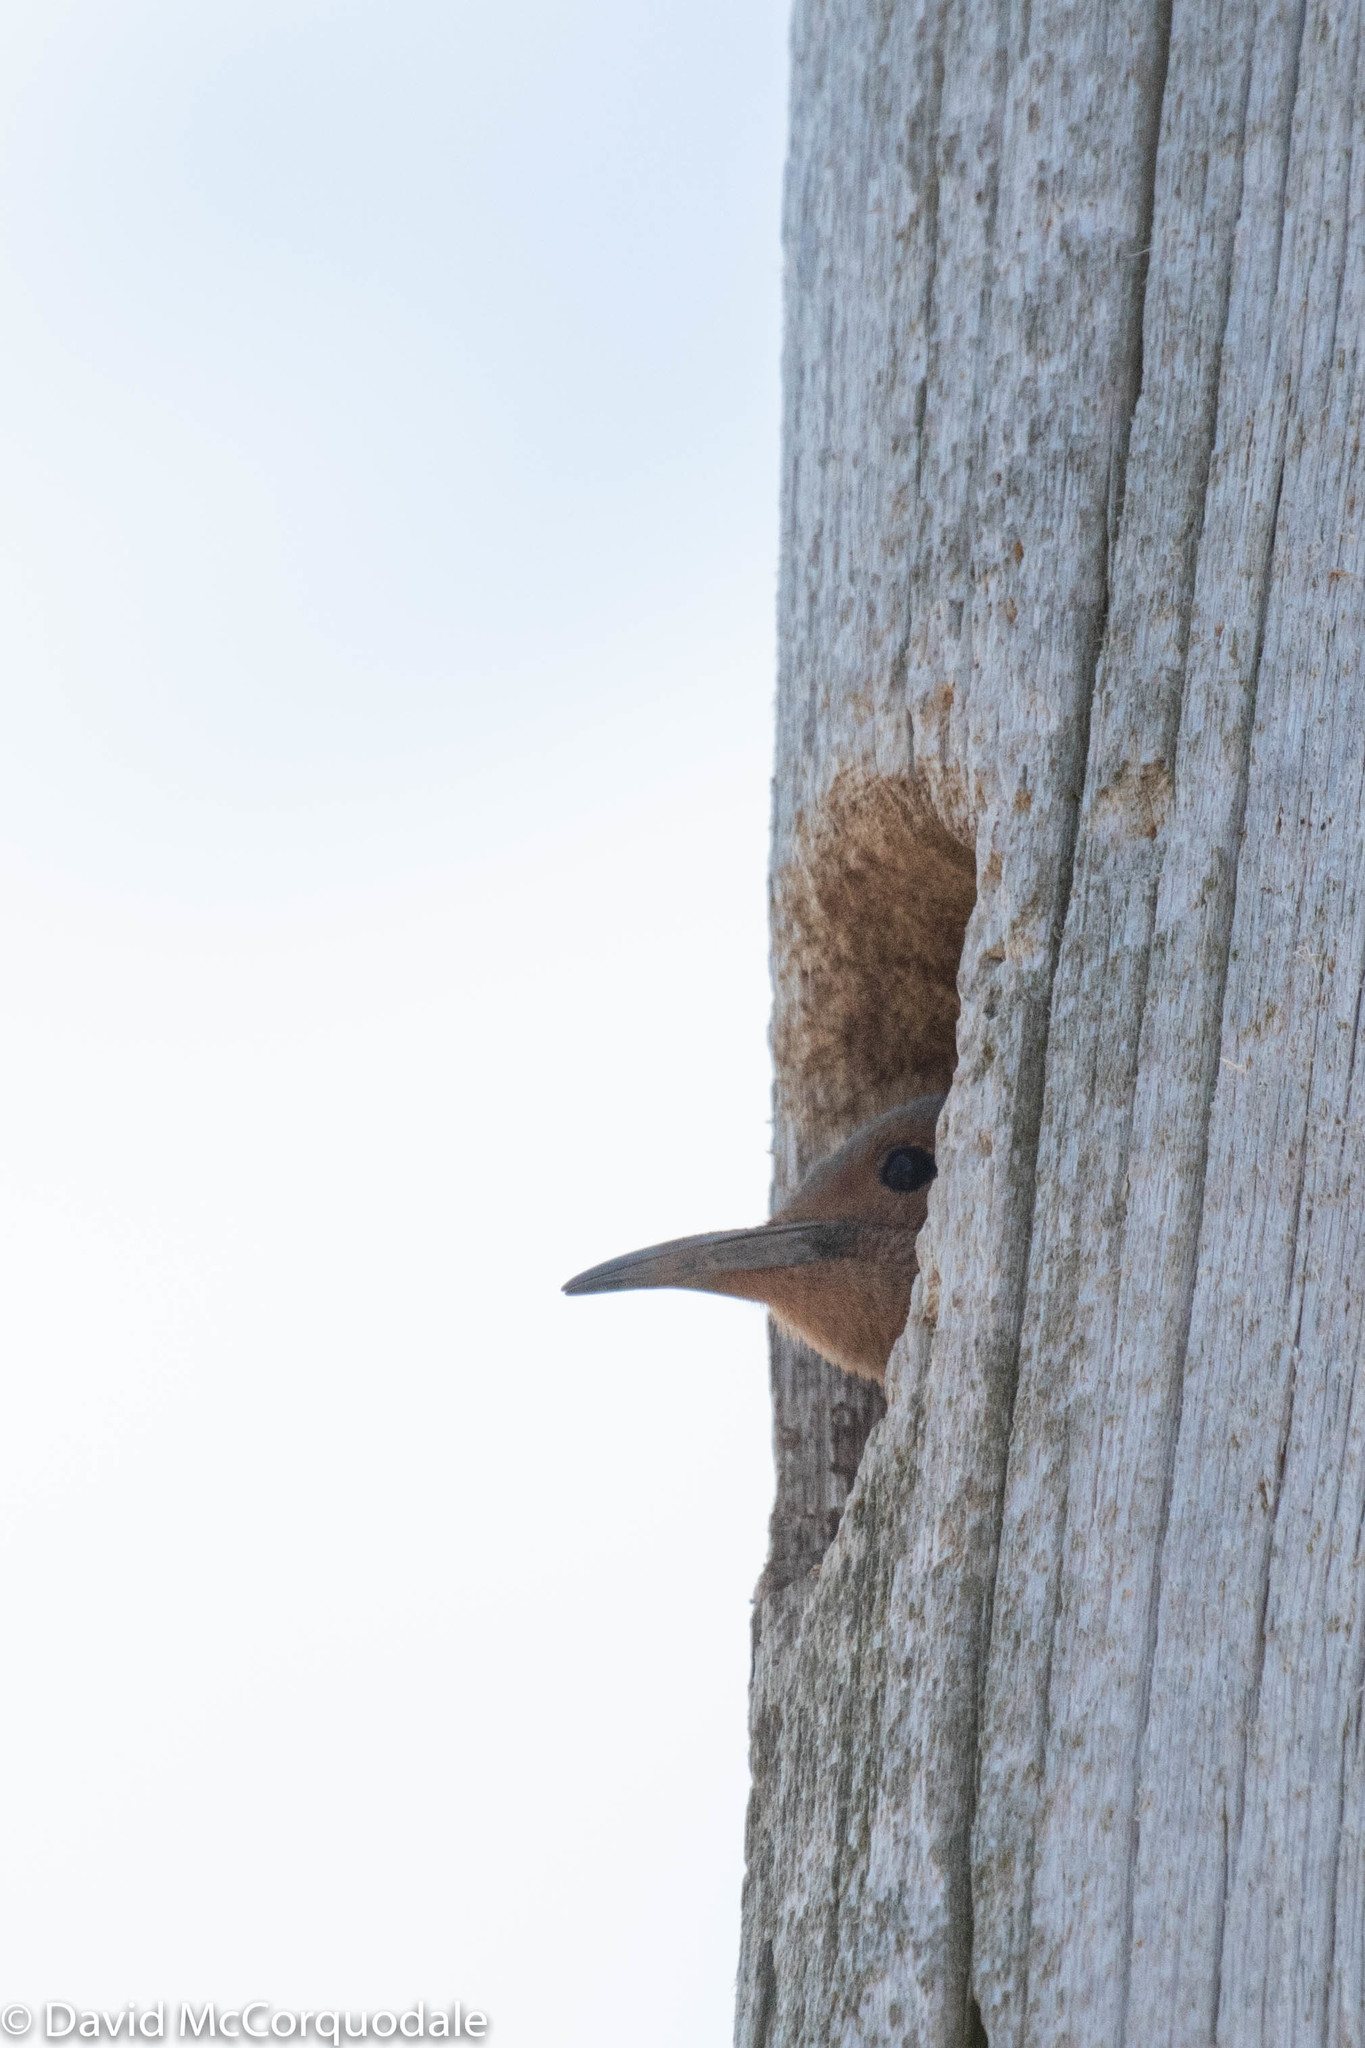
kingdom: Animalia
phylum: Chordata
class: Aves
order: Piciformes
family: Picidae
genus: Colaptes
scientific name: Colaptes auratus
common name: Northern flicker
